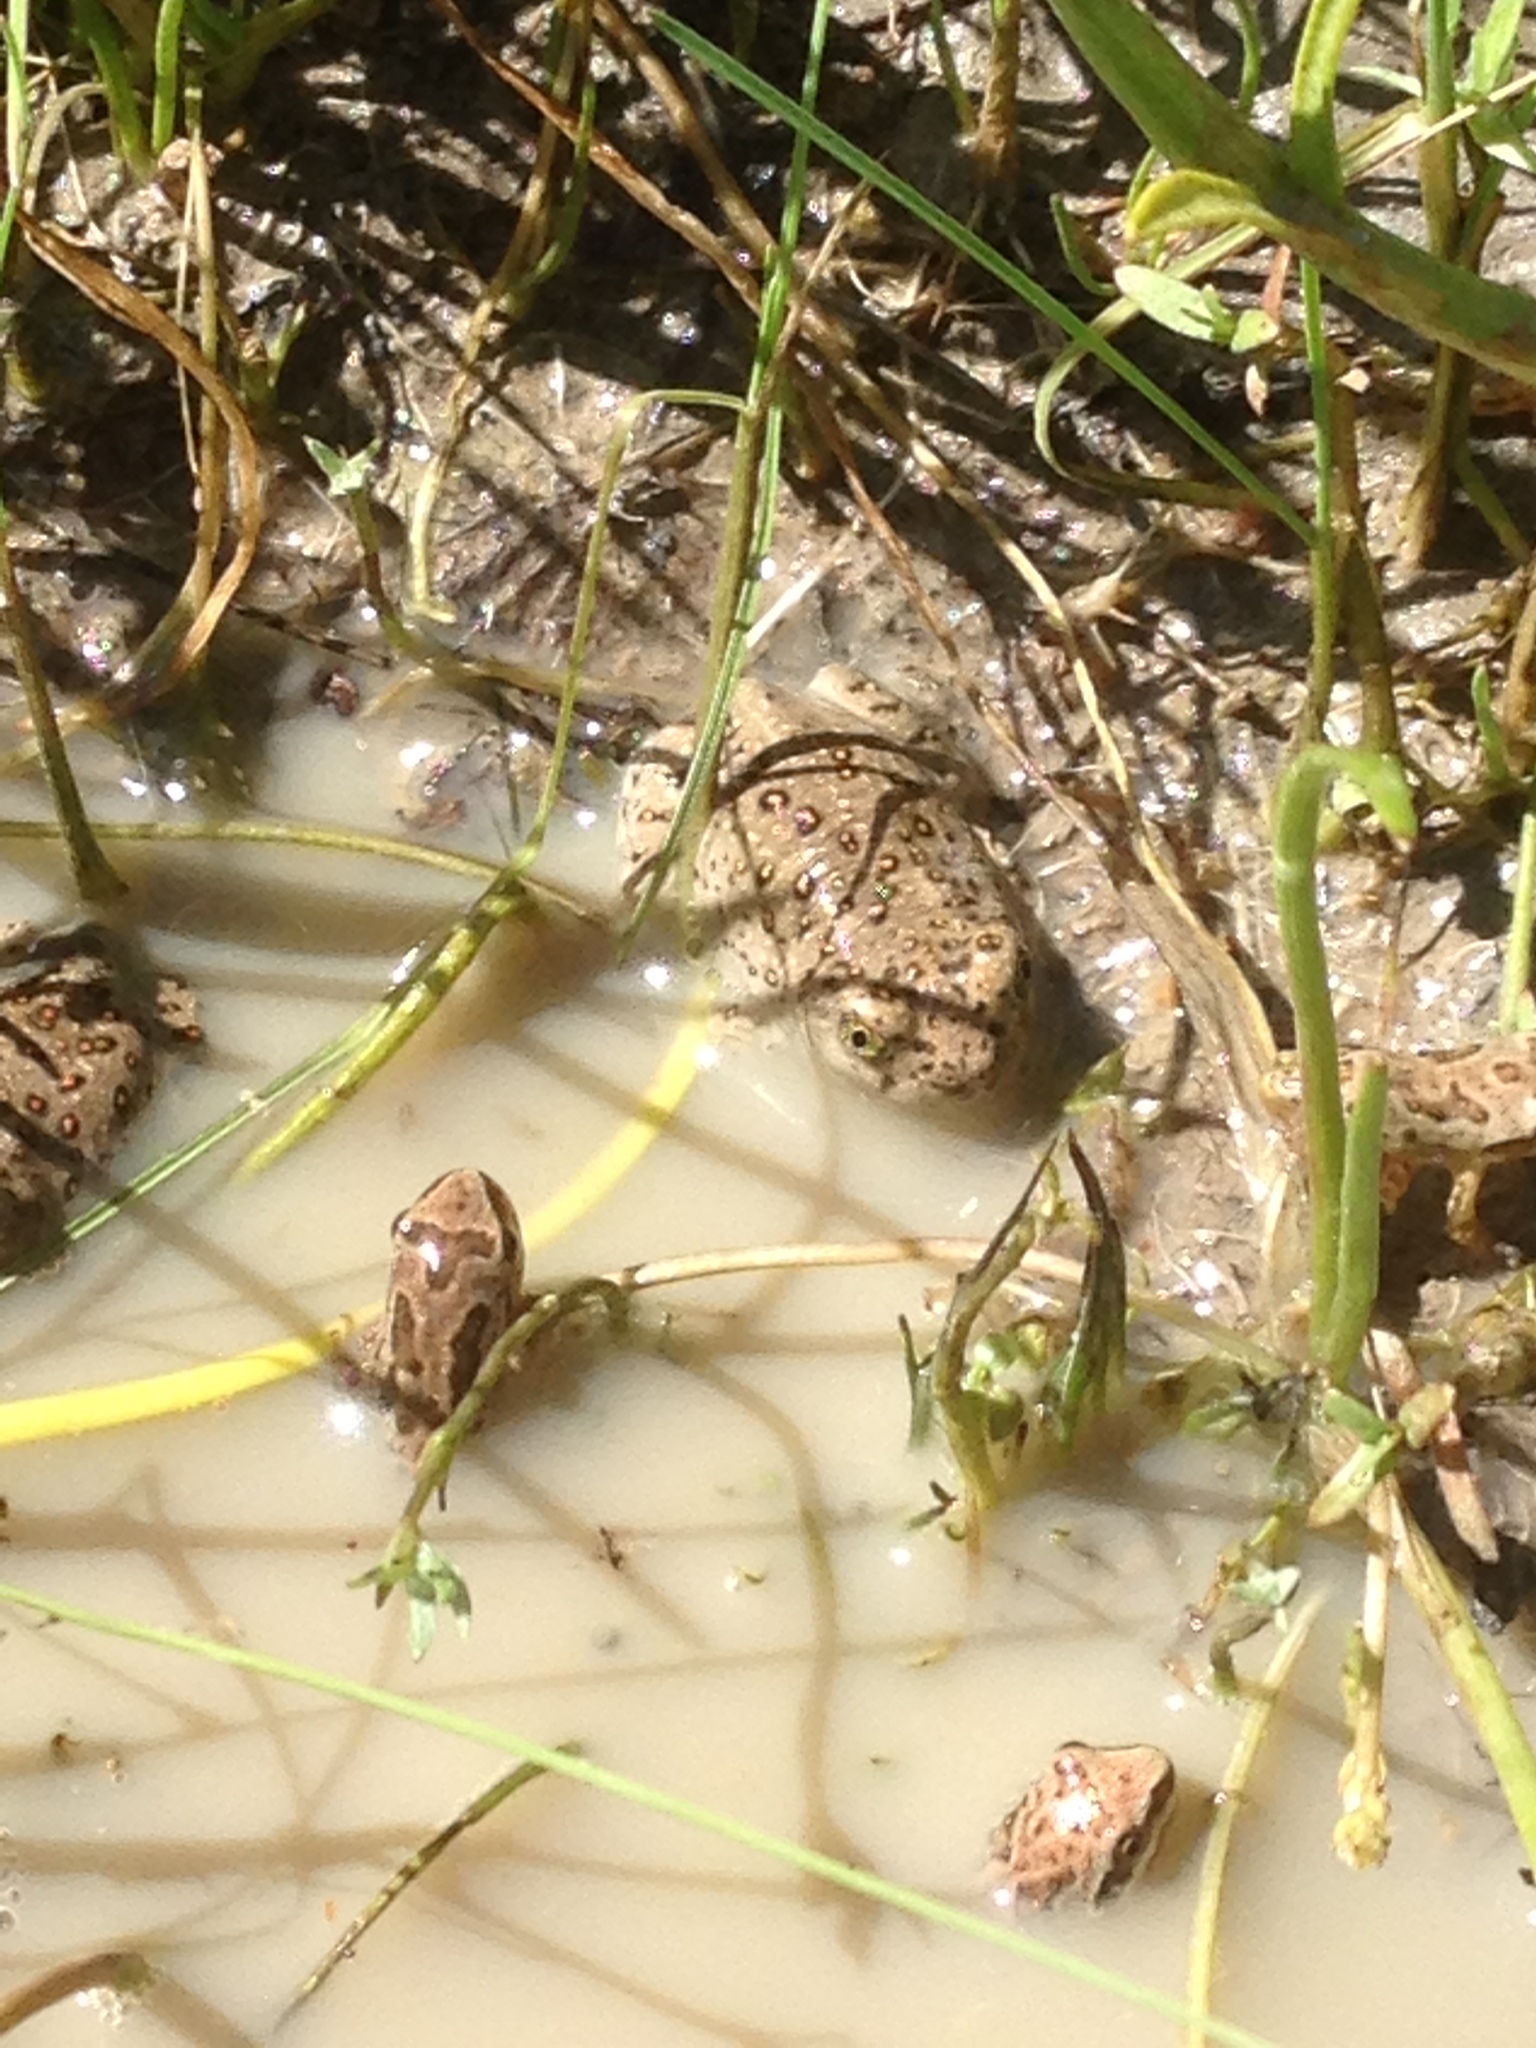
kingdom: Animalia
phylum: Chordata
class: Amphibia
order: Anura
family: Scaphiopodidae
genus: Spea
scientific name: Spea hammondii
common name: Western spadefoot toad
